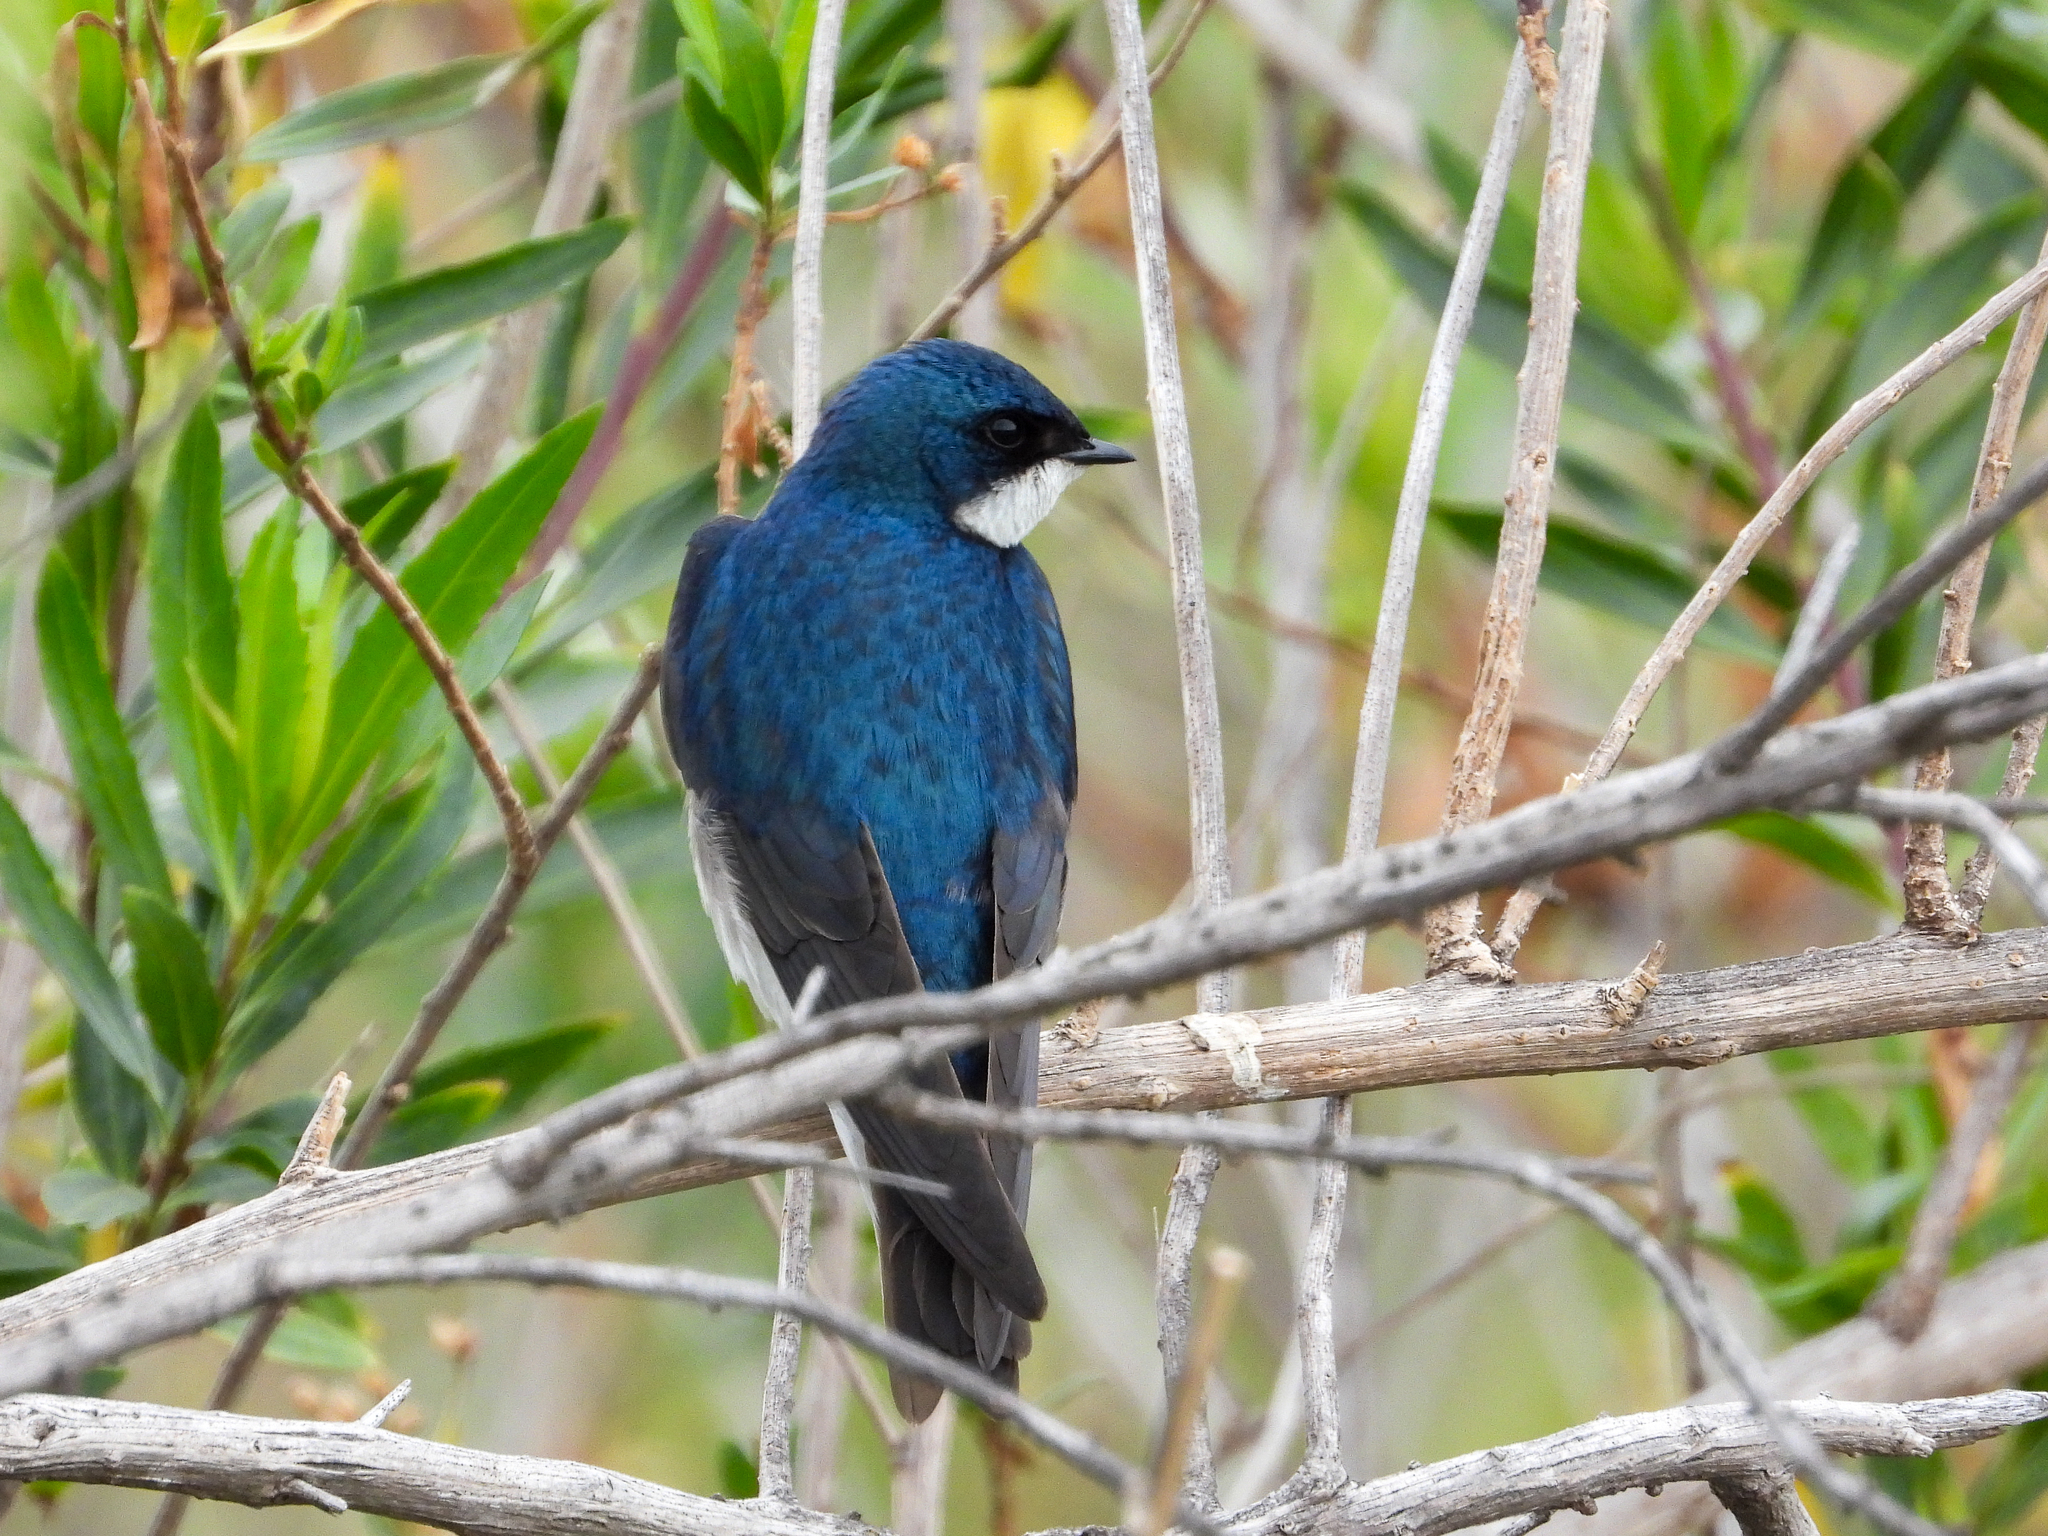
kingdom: Animalia
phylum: Chordata
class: Aves
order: Passeriformes
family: Hirundinidae
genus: Tachycineta
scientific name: Tachycineta bicolor
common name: Tree swallow
